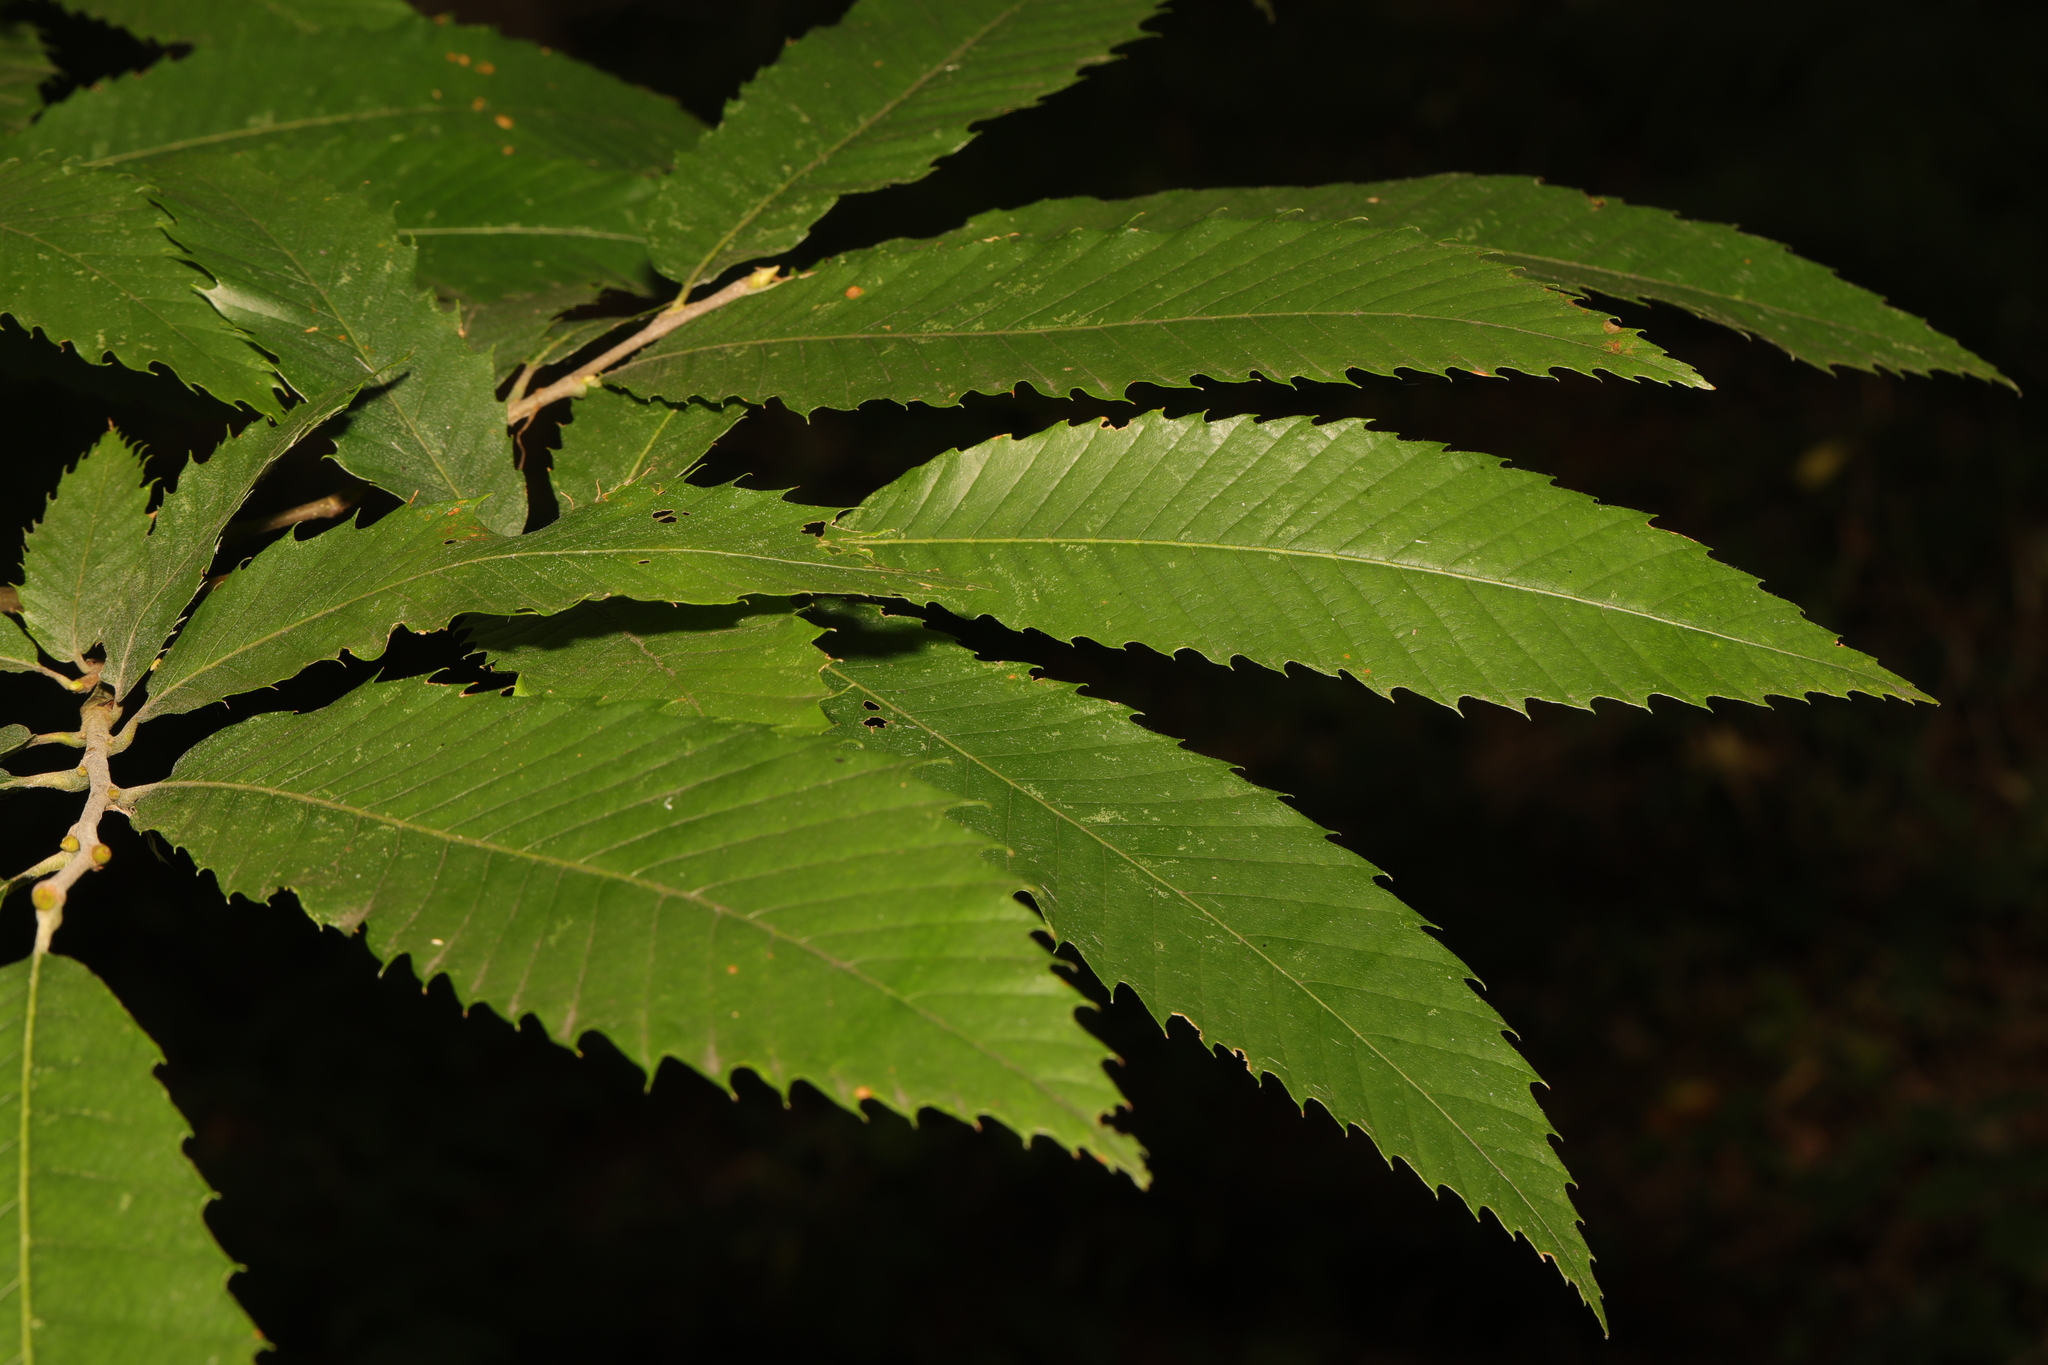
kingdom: Plantae
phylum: Tracheophyta
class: Magnoliopsida
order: Fagales
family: Fagaceae
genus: Castanea
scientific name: Castanea sativa
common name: Sweet chestnut
